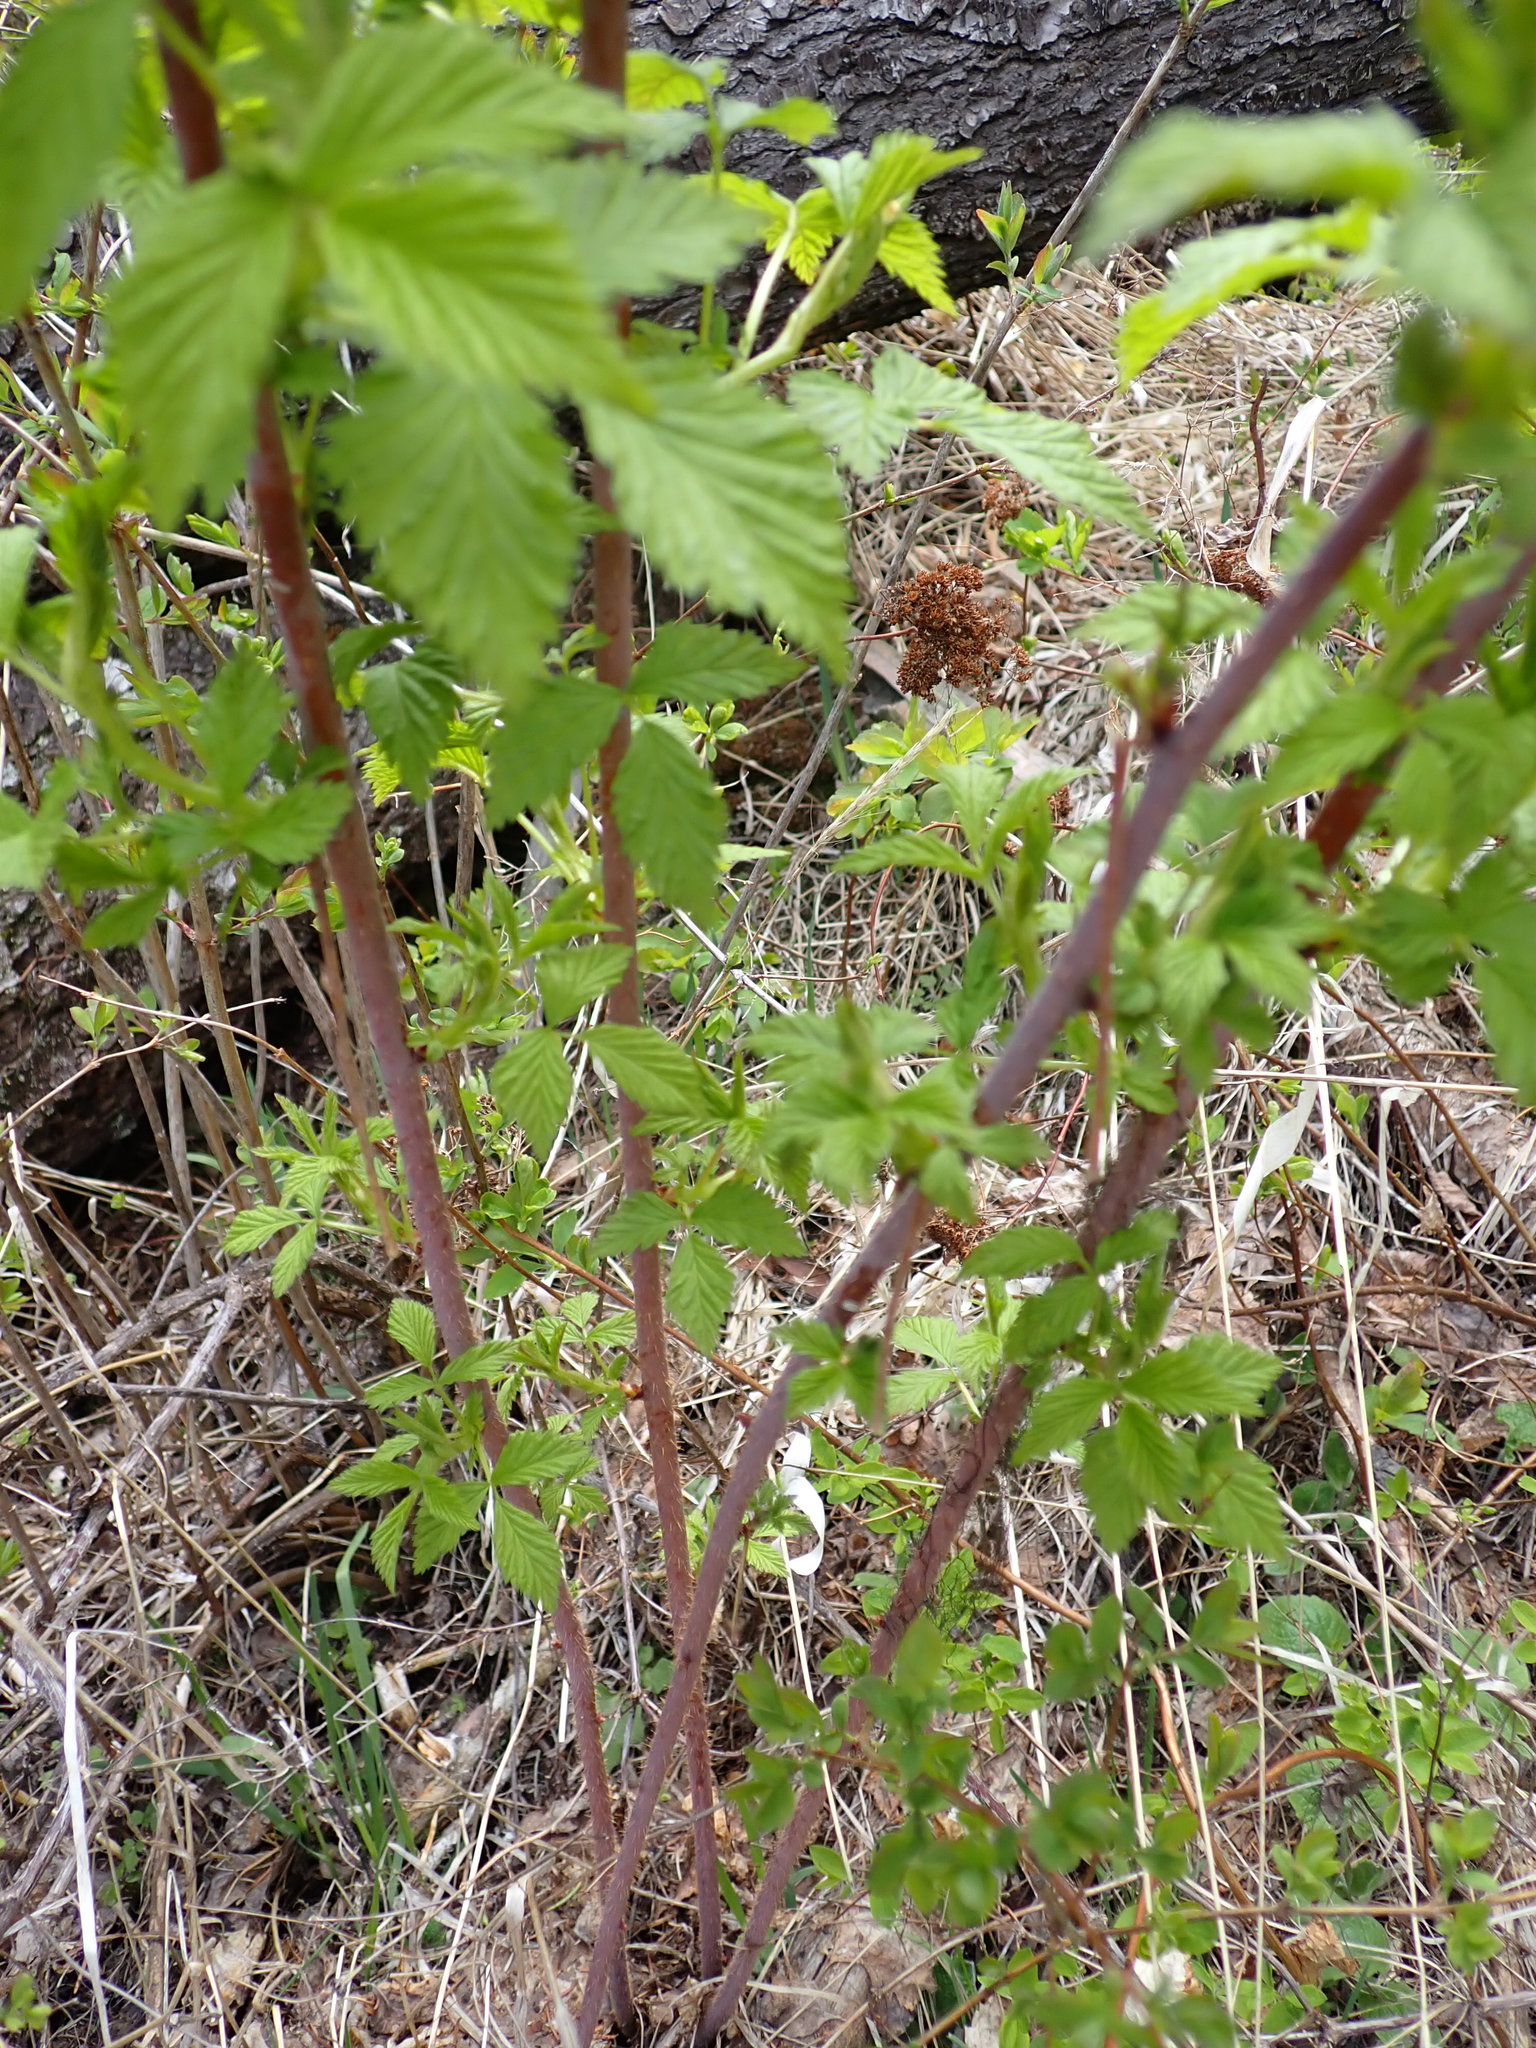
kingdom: Plantae
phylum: Tracheophyta
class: Magnoliopsida
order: Rosales
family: Rosaceae
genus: Rubus
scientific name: Rubus idaeus
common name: Raspberry
